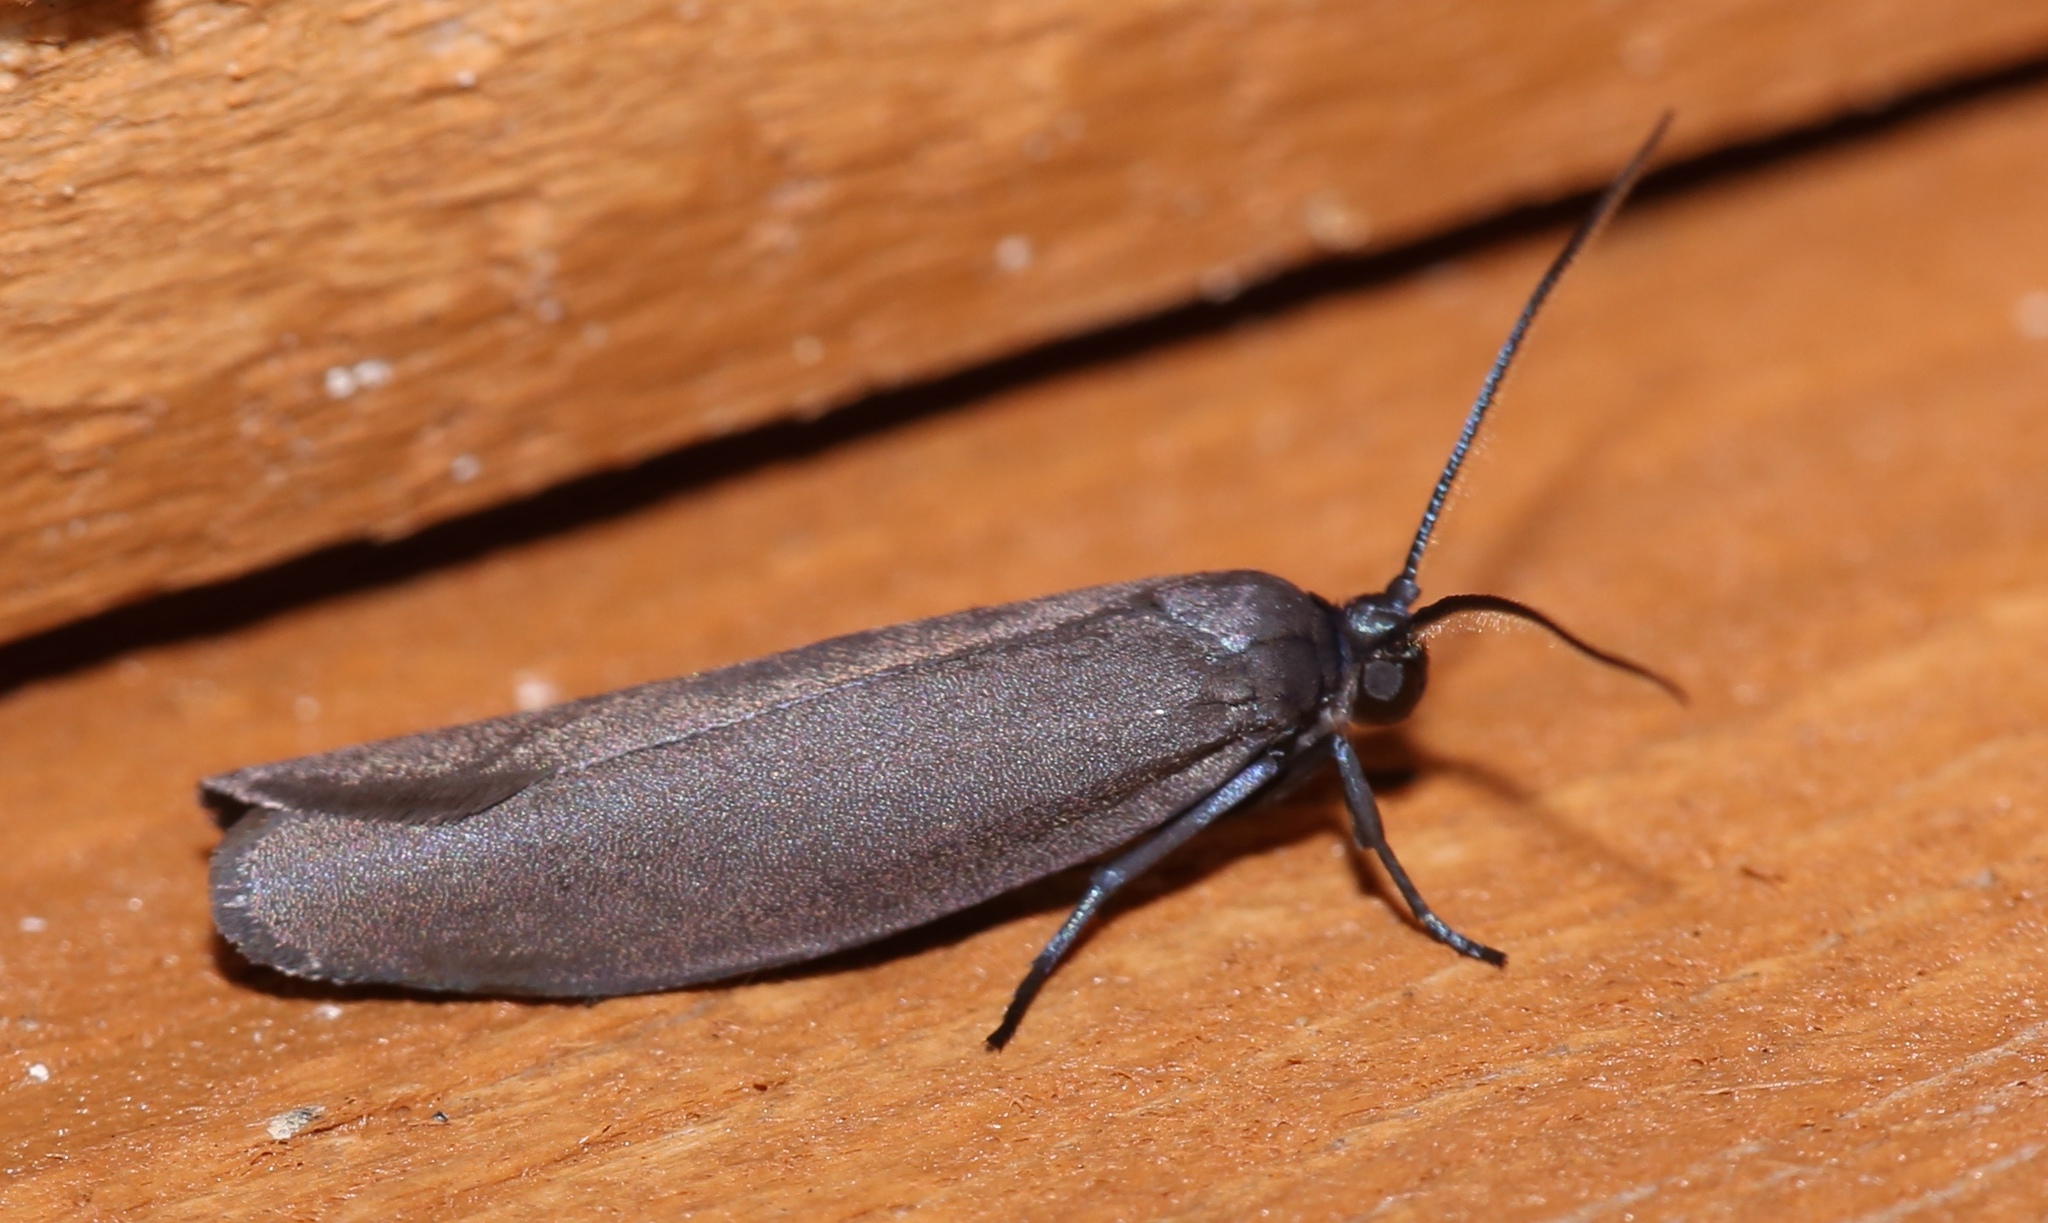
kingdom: Animalia
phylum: Arthropoda
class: Insecta
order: Lepidoptera
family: Urodidae
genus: Urodus
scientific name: Urodus parvula
